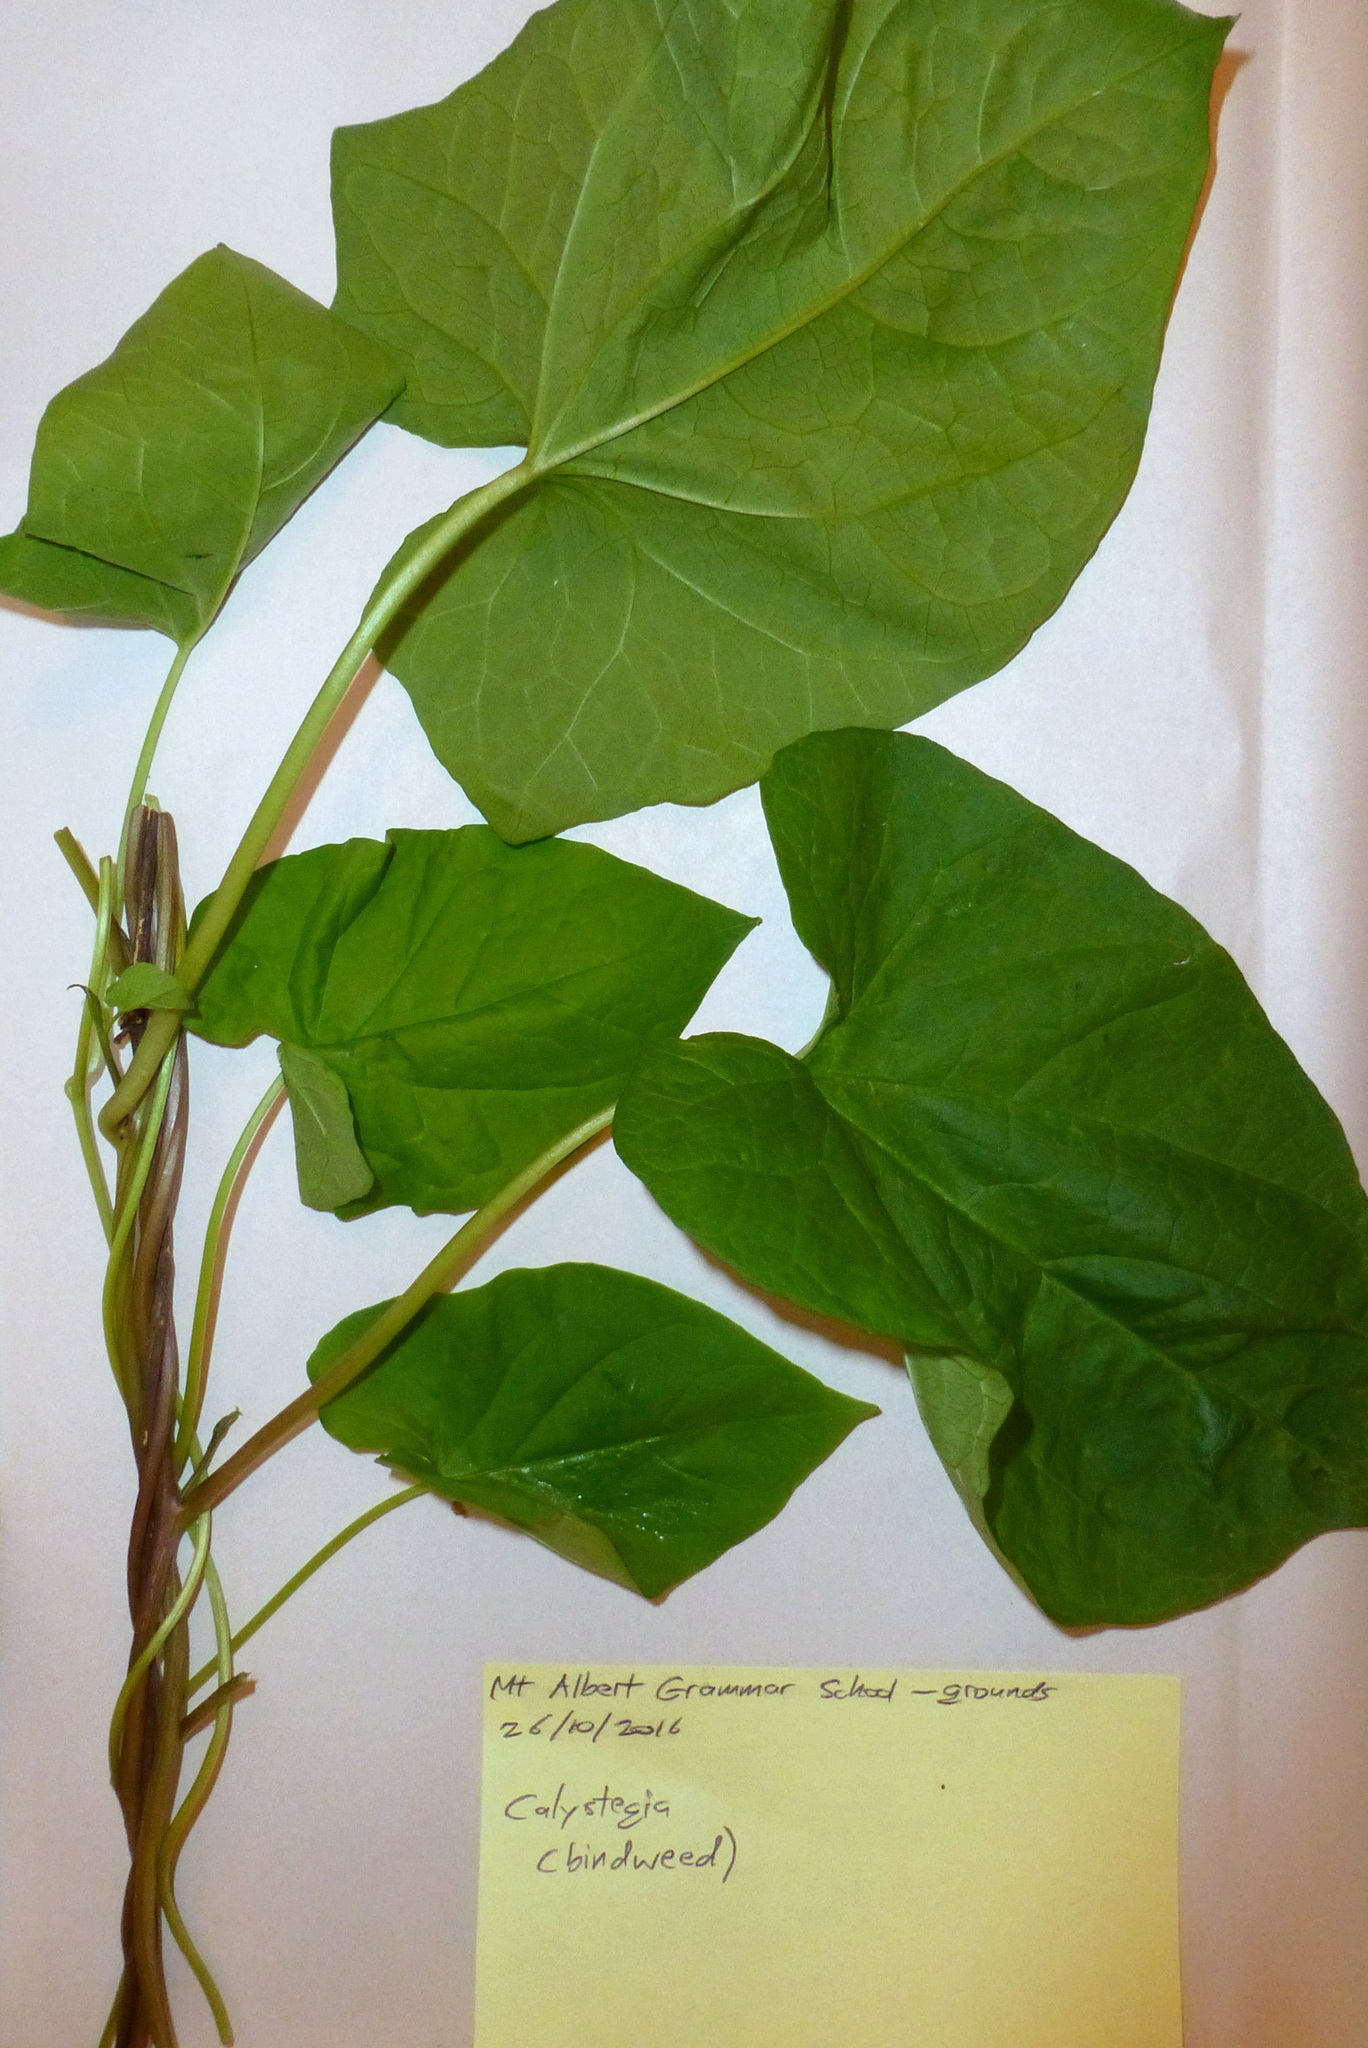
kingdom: Plantae
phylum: Tracheophyta
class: Magnoliopsida
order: Solanales
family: Convolvulaceae
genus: Calystegia
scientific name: Calystegia silvatica
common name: Large bindweed
